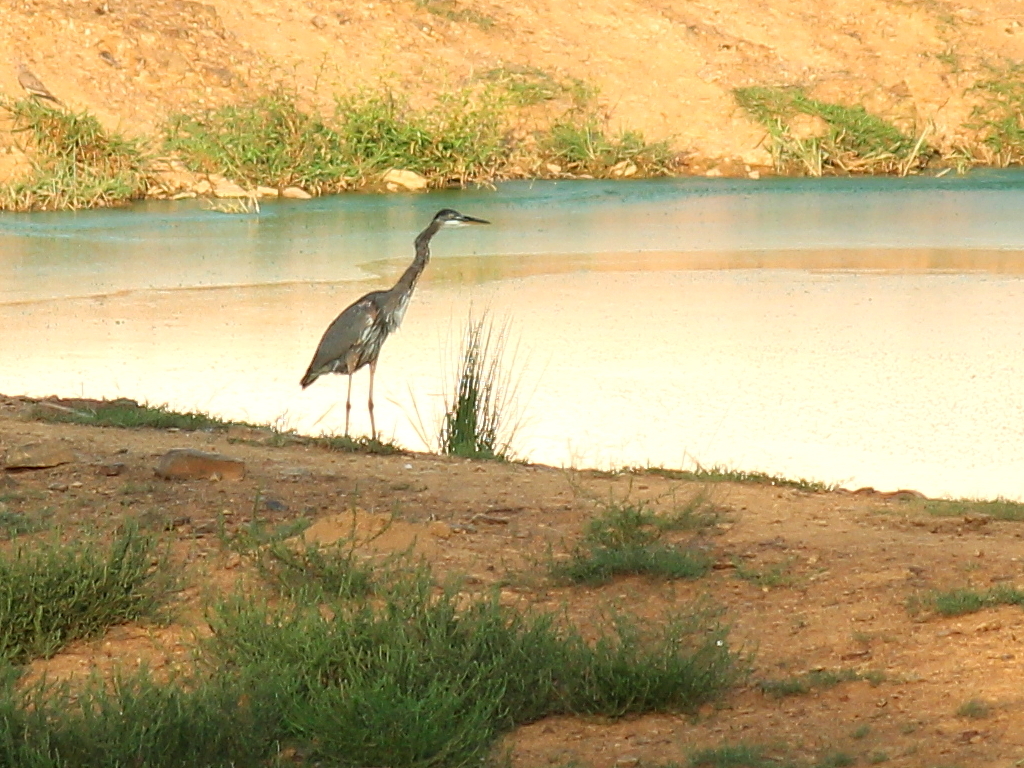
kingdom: Animalia
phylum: Chordata
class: Aves
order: Pelecaniformes
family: Ardeidae
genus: Ardea
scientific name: Ardea herodias
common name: Great blue heron
